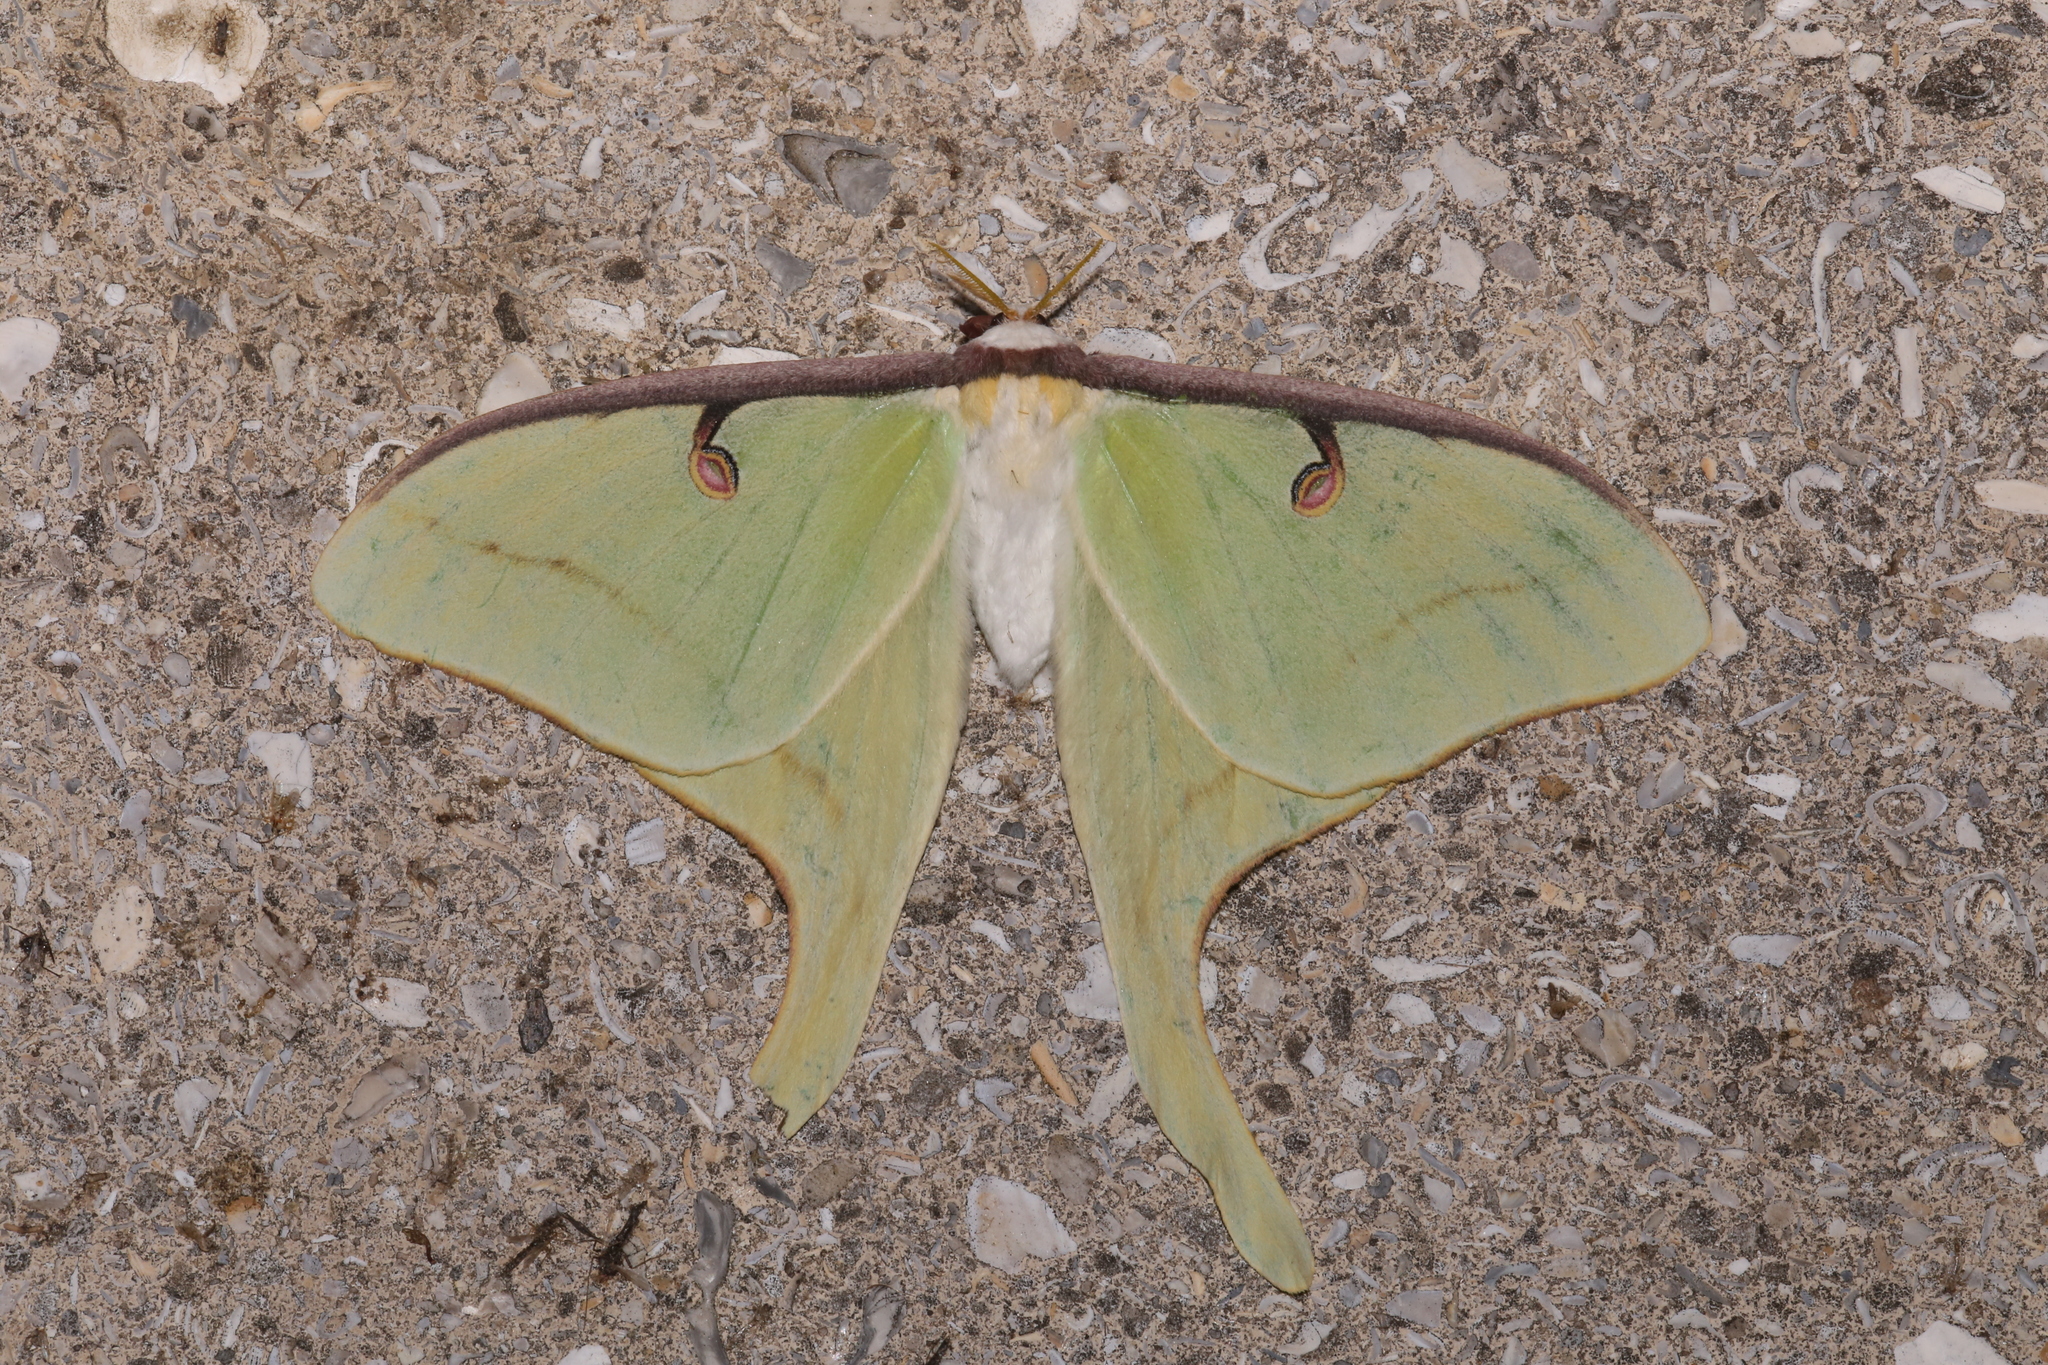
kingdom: Animalia
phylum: Arthropoda
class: Insecta
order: Lepidoptera
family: Saturniidae
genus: Actias
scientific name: Actias luna
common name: Luna moth
